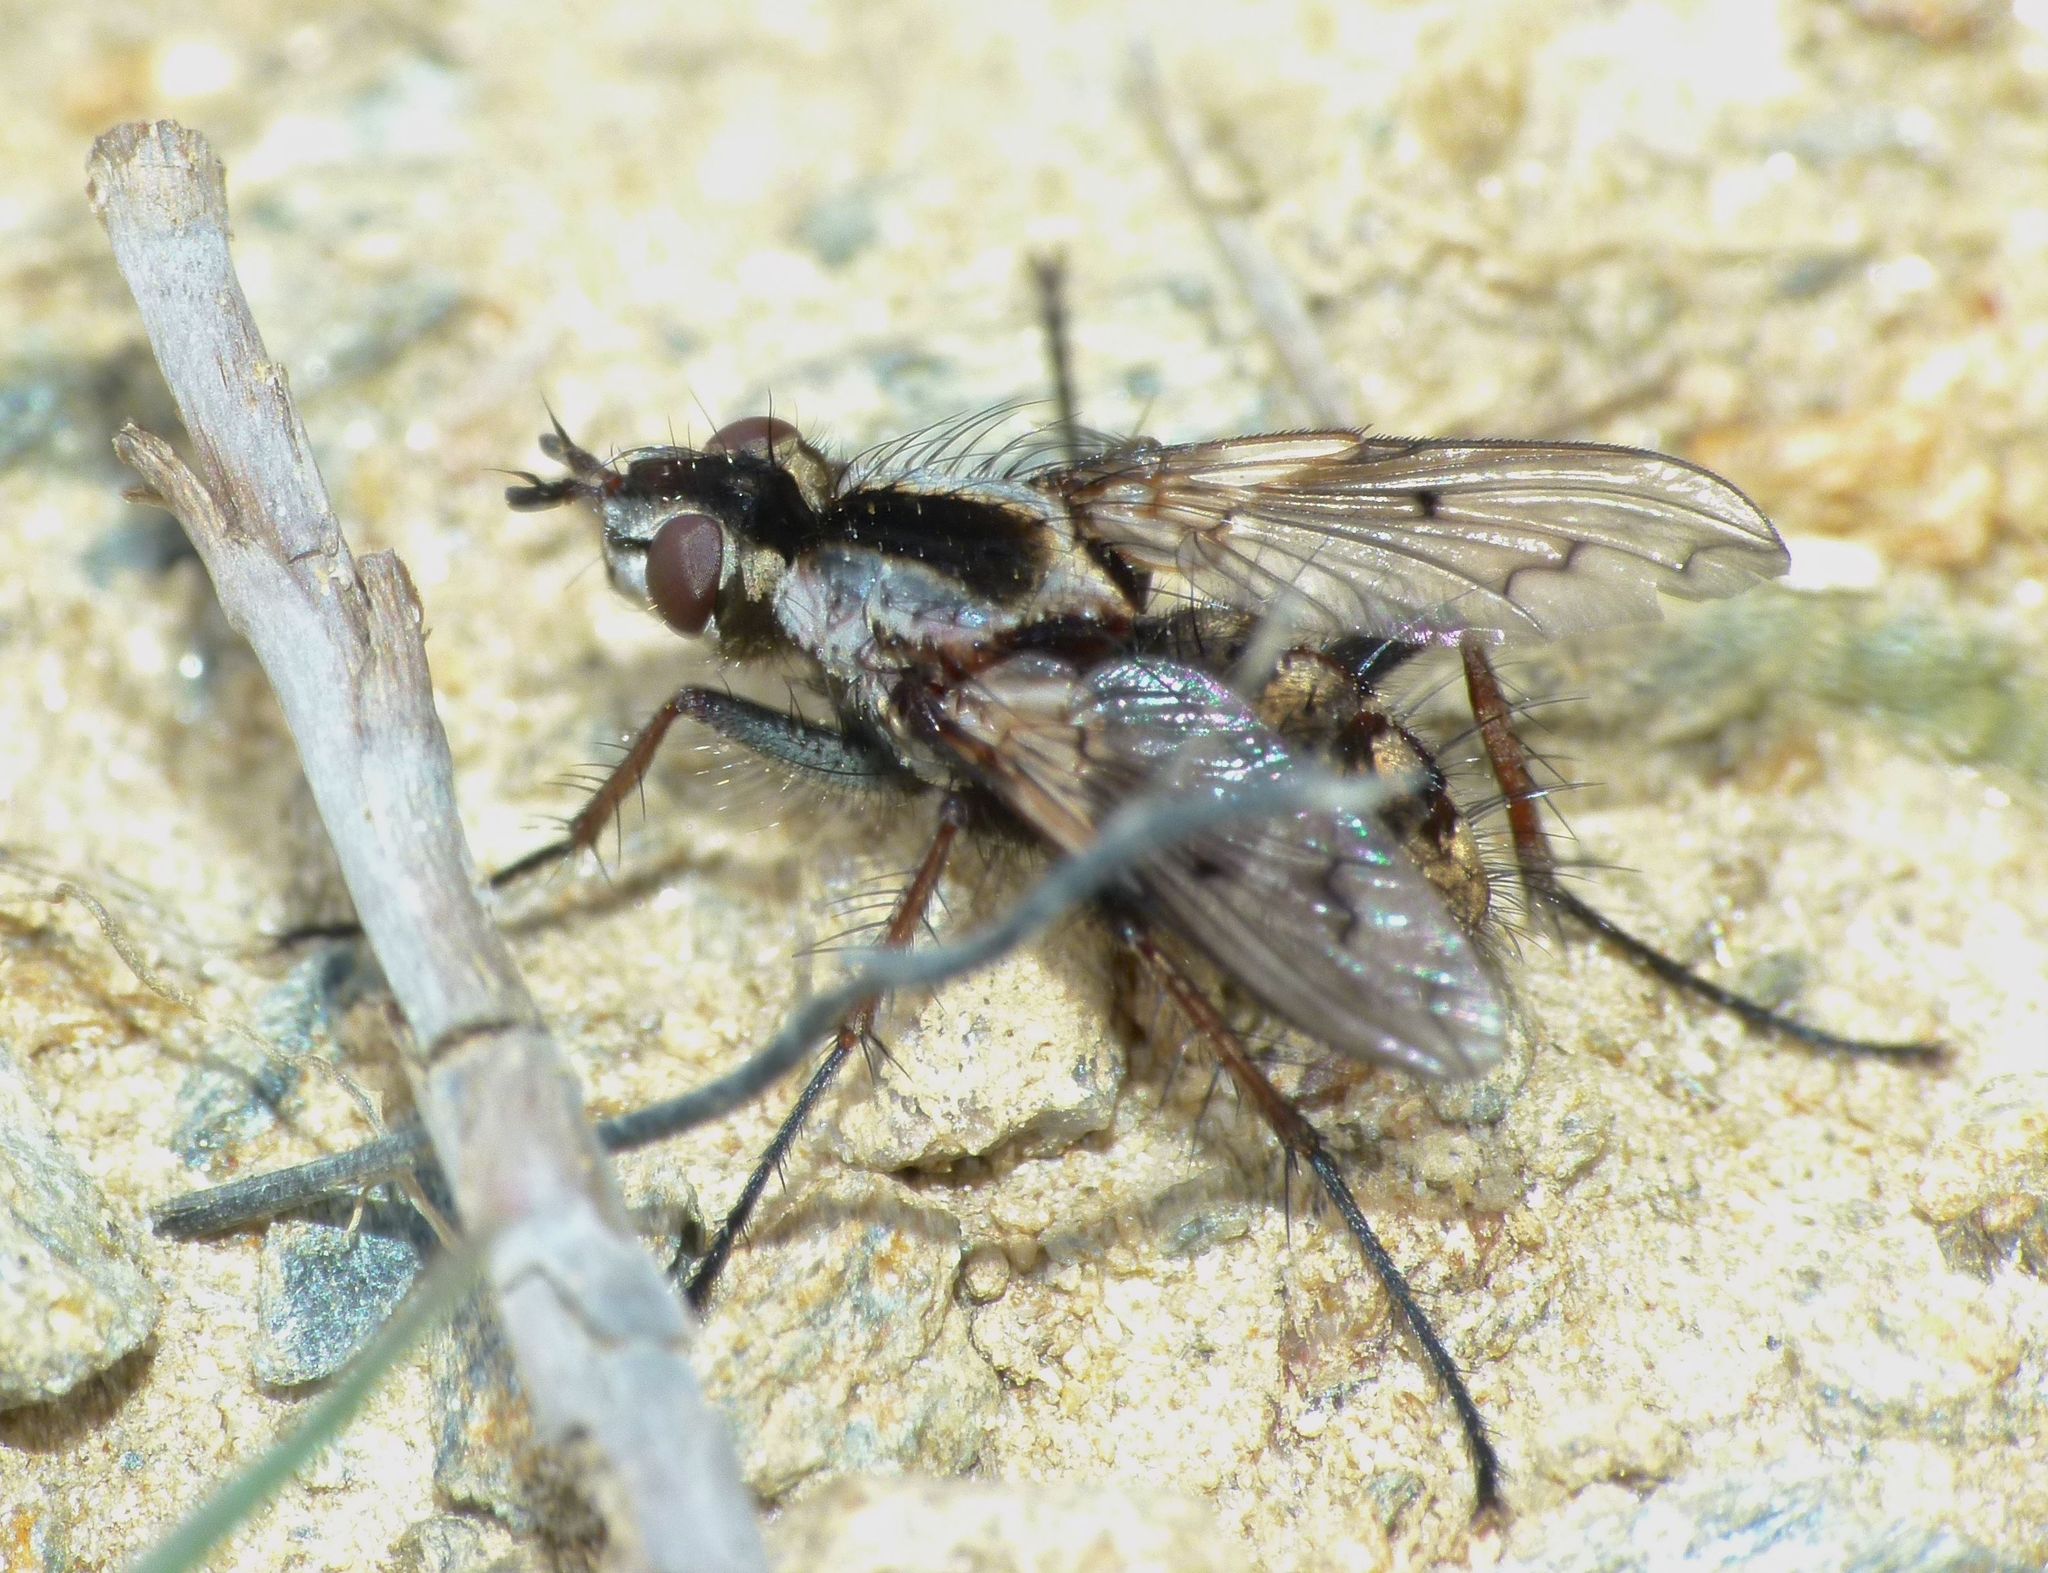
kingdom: Animalia
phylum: Arthropoda
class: Insecta
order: Diptera
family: Tachinidae
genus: Proscissio
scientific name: Proscissio milleri
